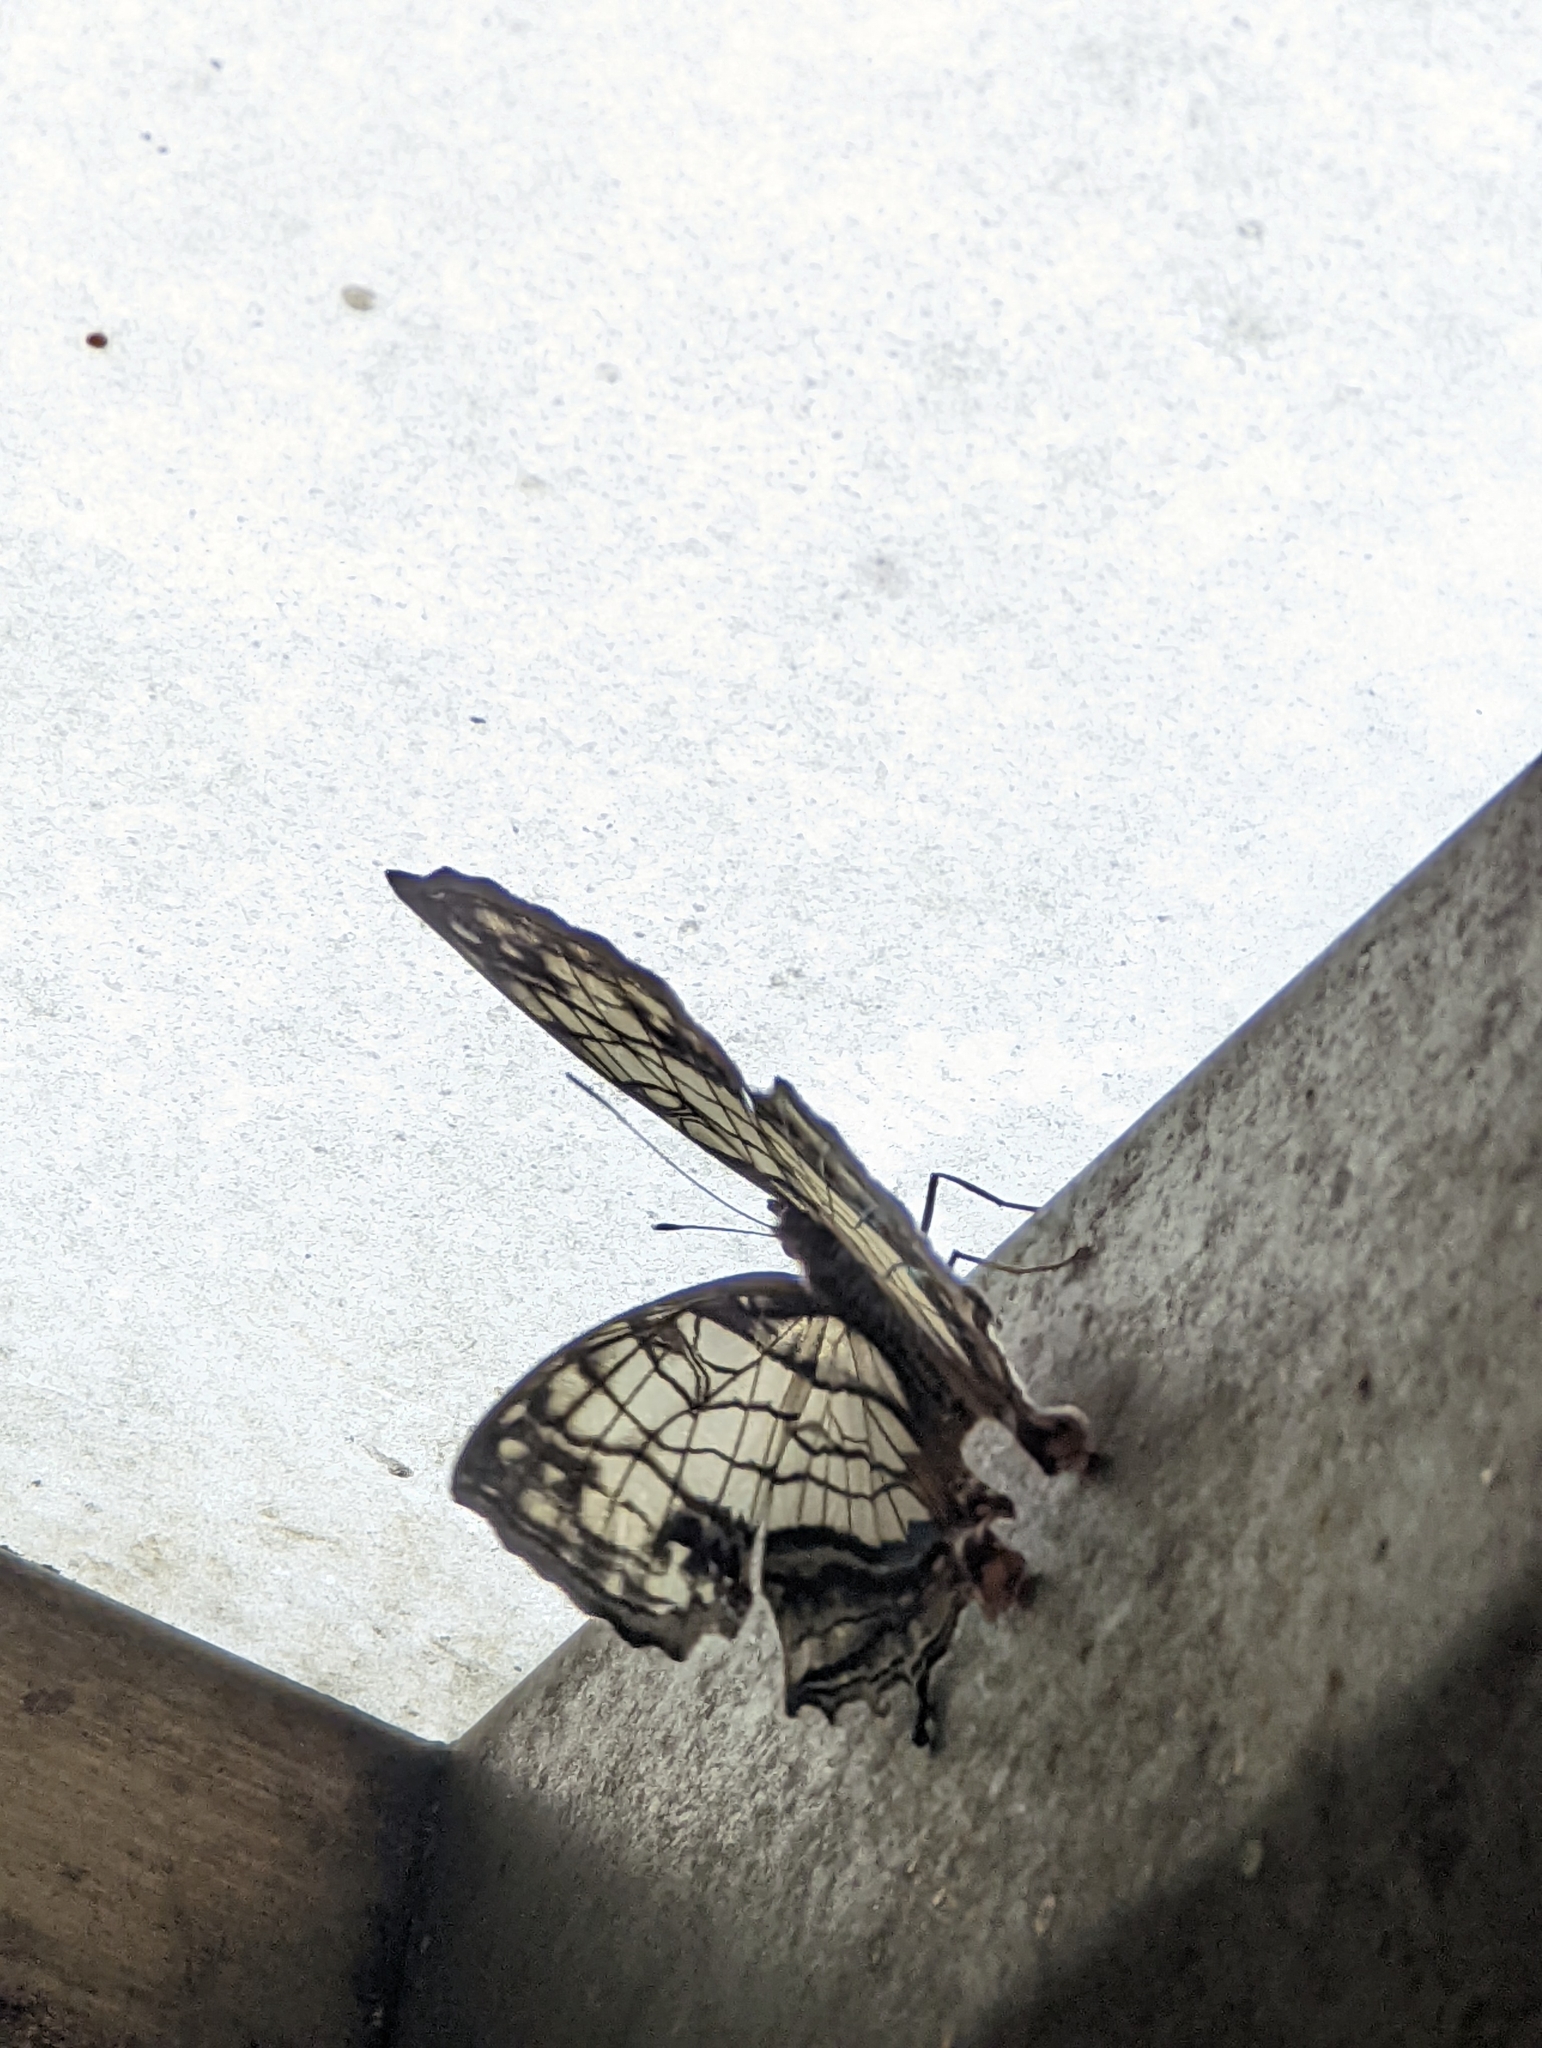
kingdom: Animalia
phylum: Arthropoda
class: Insecta
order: Lepidoptera
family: Nymphalidae
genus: Cyrestis
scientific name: Cyrestis thyodamas
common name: Common mapwing
